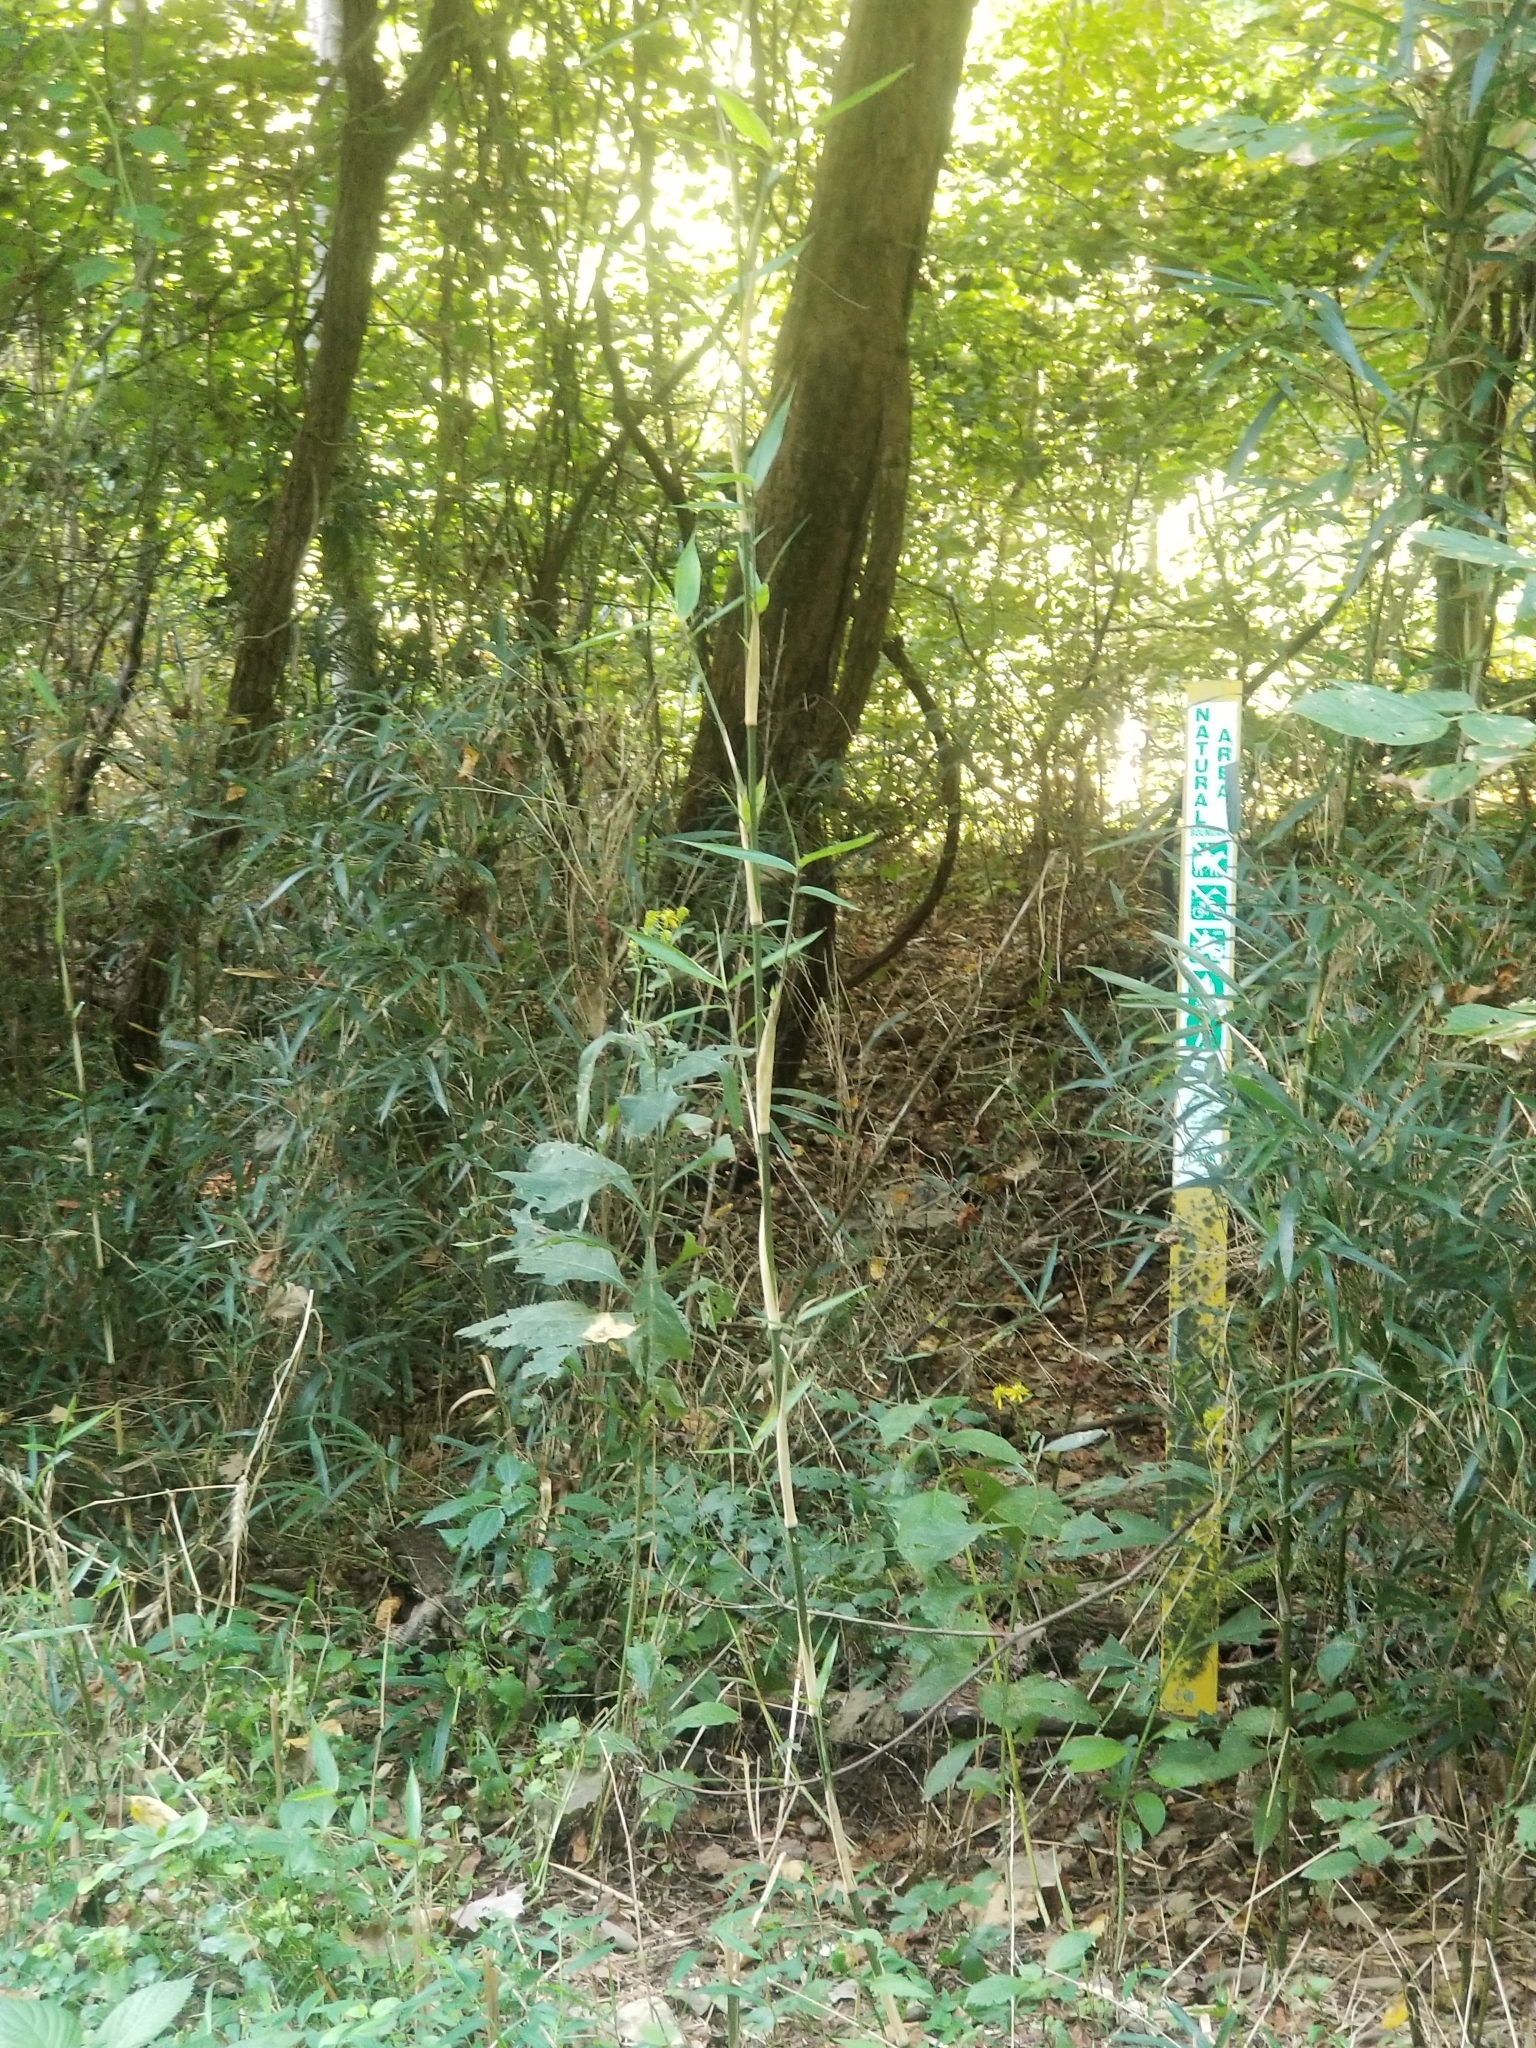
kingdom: Plantae
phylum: Tracheophyta
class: Liliopsida
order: Poales
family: Poaceae
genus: Arundinaria
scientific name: Arundinaria gigantea
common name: Giant cane
